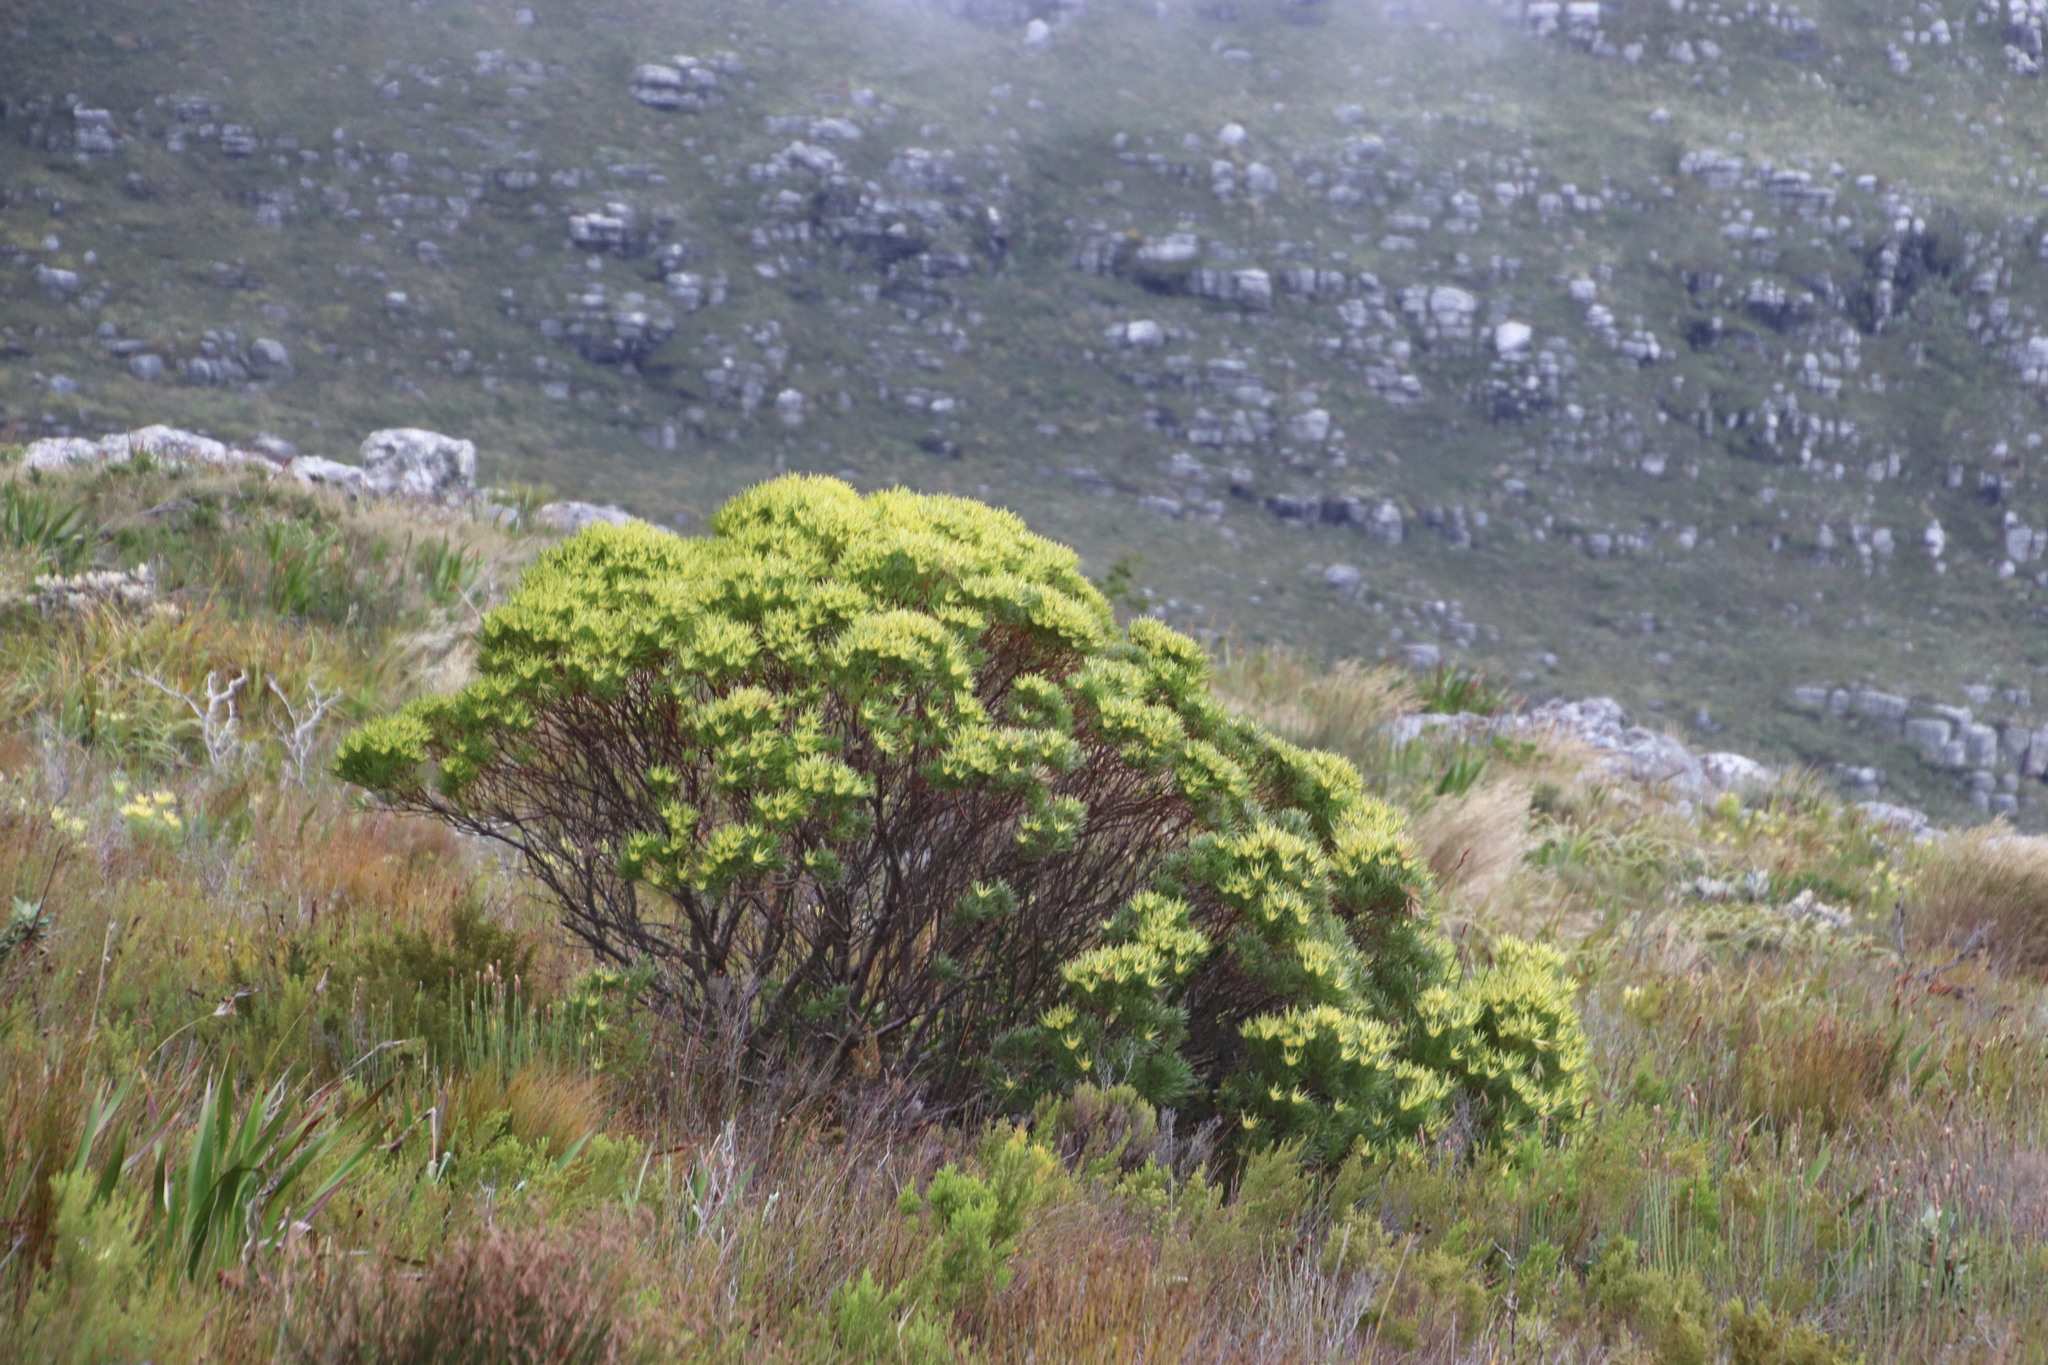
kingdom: Plantae
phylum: Tracheophyta
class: Magnoliopsida
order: Proteales
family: Proteaceae
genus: Leucadendron
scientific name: Leucadendron xanthoconus
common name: Sickle-leaf conebush
